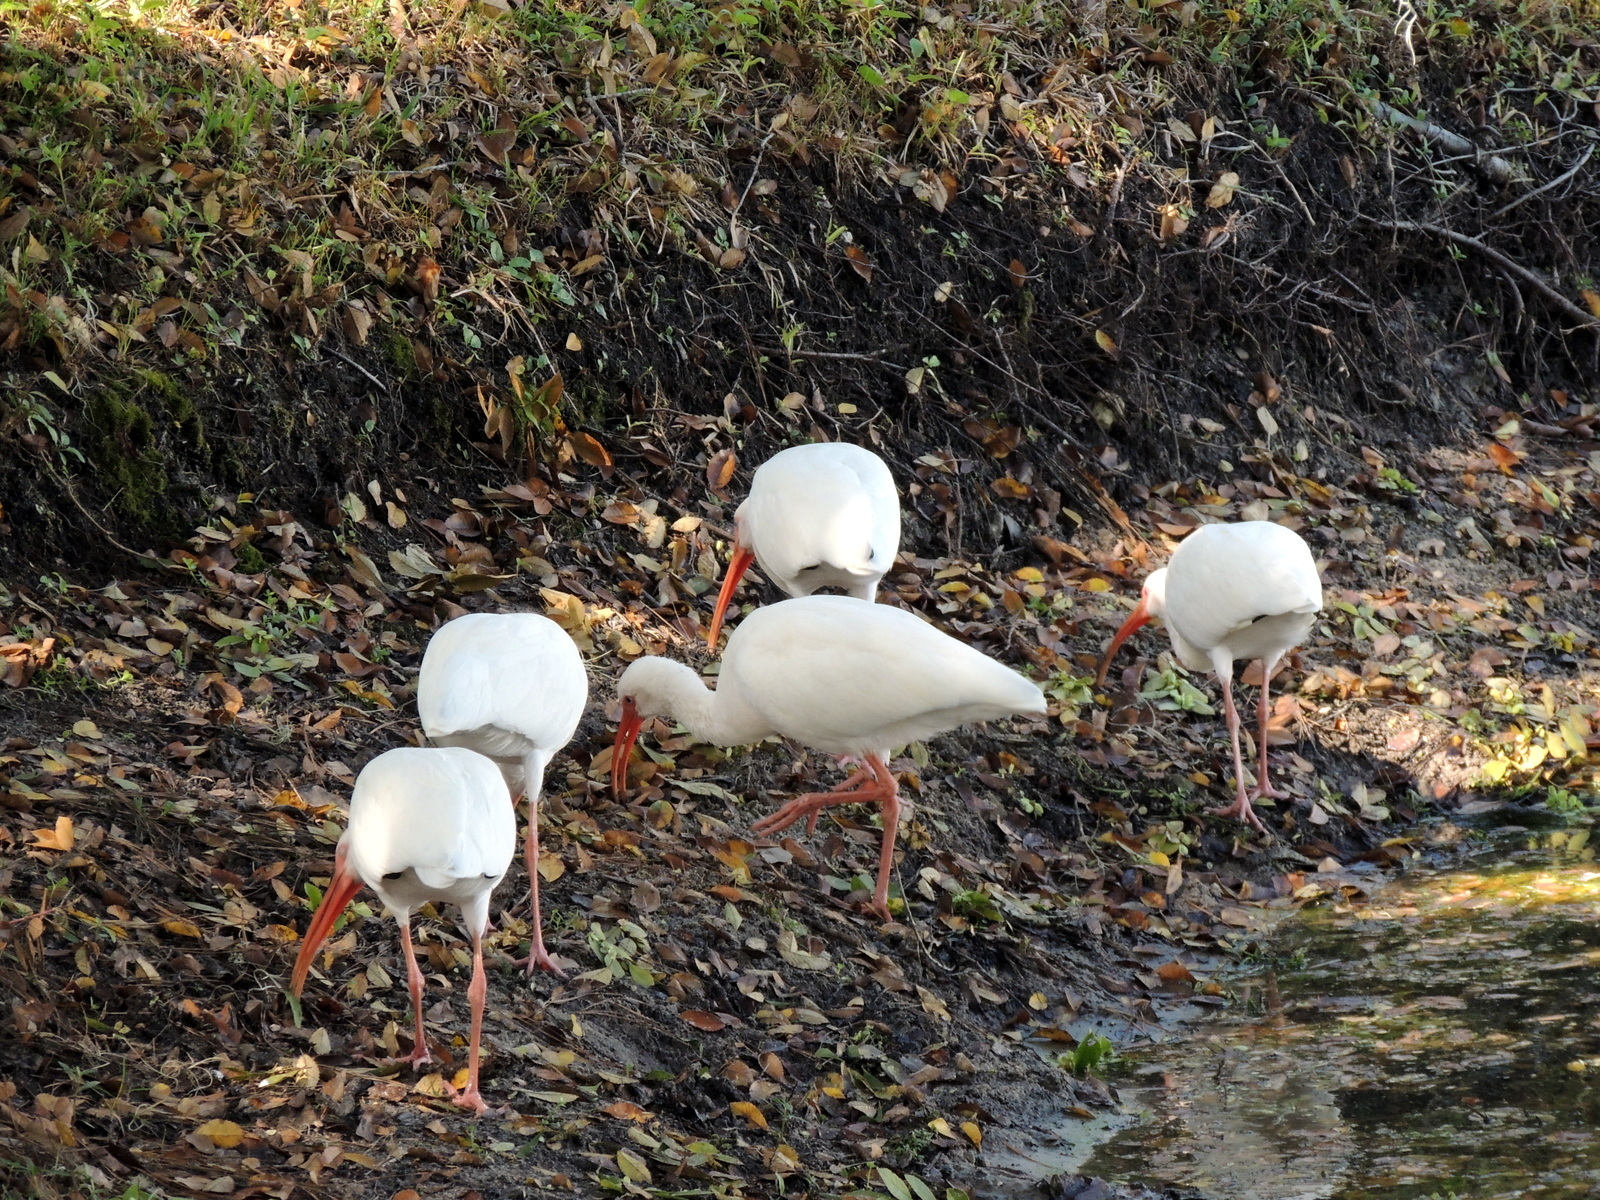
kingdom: Animalia
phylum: Chordata
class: Aves
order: Pelecaniformes
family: Threskiornithidae
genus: Eudocimus
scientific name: Eudocimus albus
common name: White ibis
